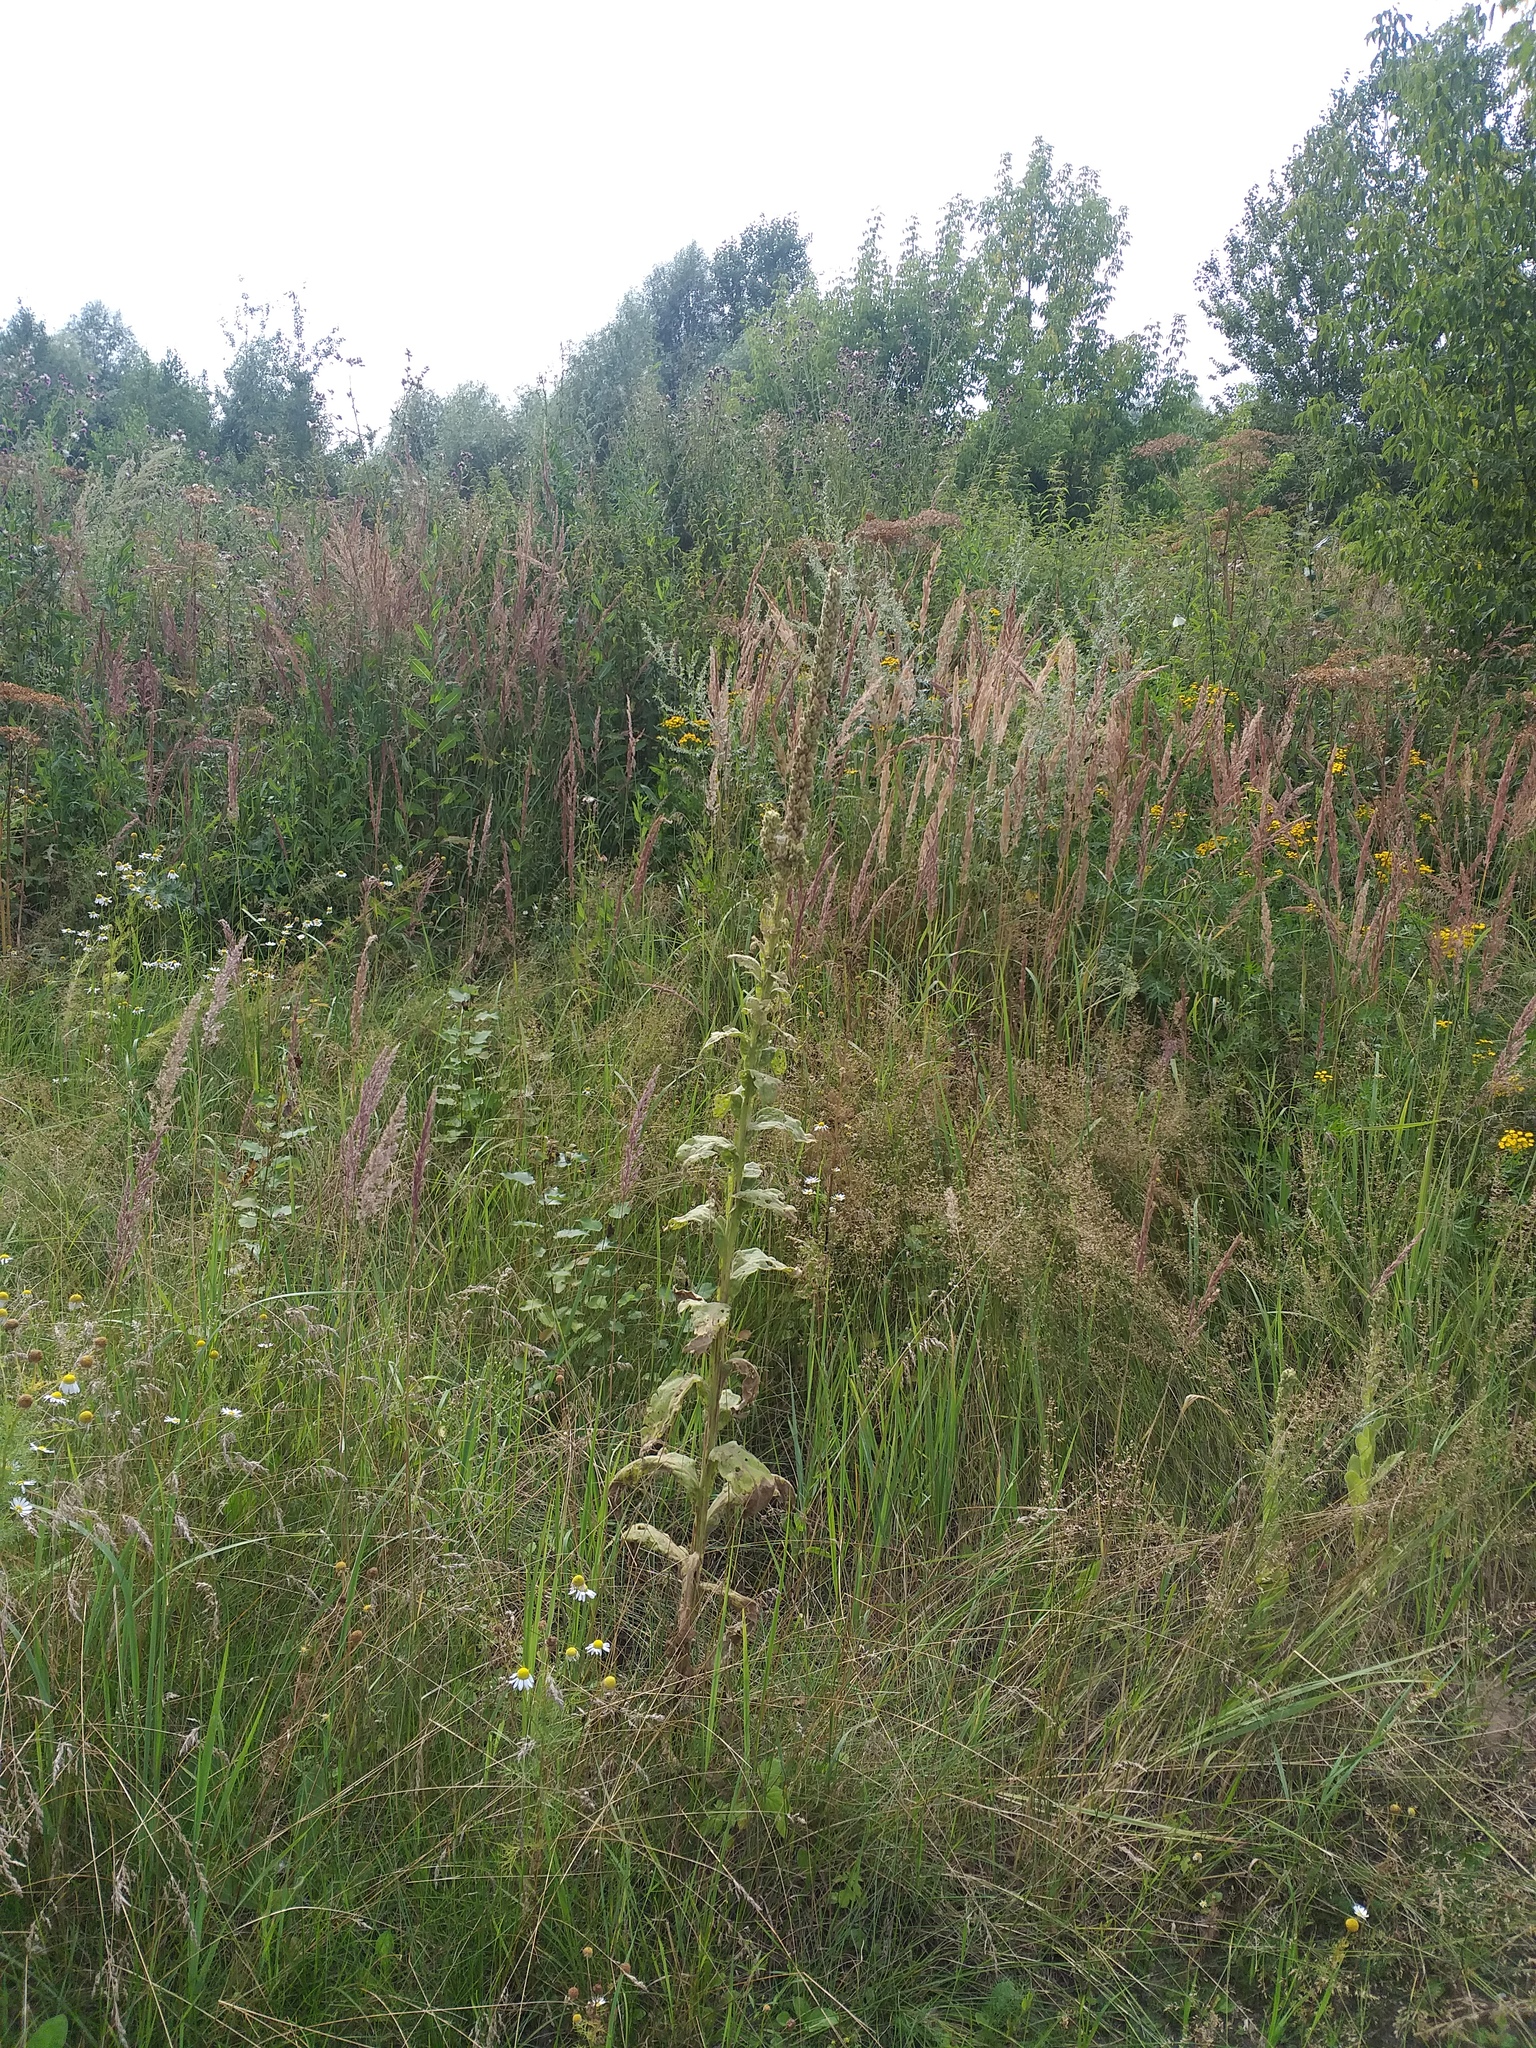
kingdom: Plantae
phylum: Tracheophyta
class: Magnoliopsida
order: Lamiales
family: Scrophulariaceae
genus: Verbascum
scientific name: Verbascum thapsus
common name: Common mullein
